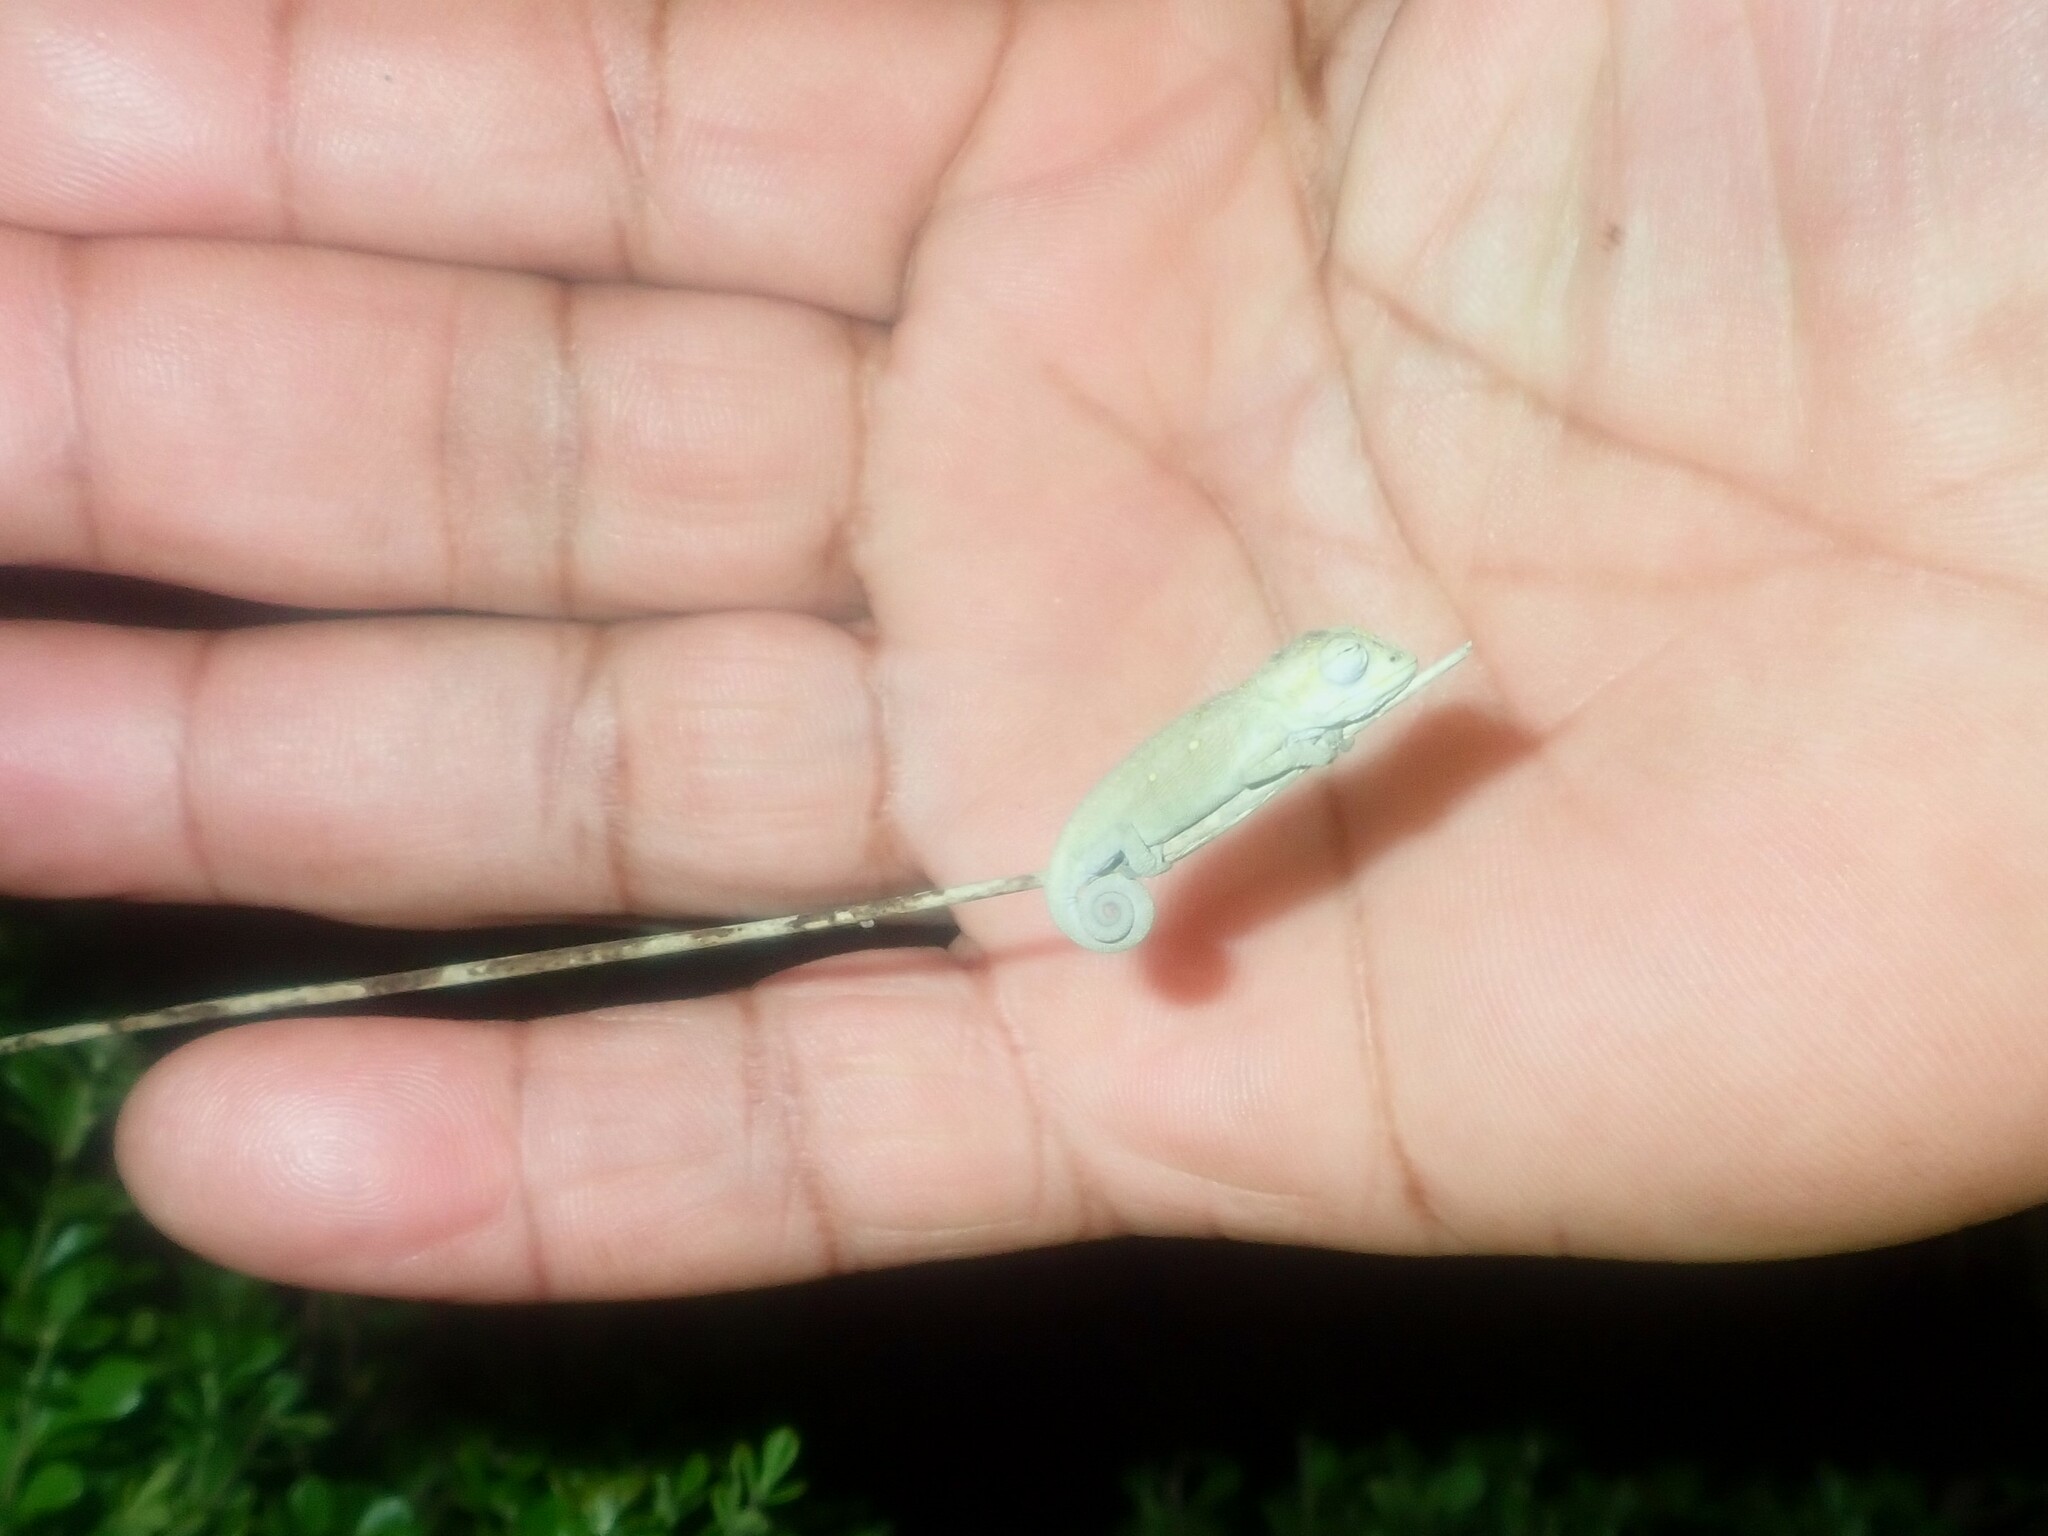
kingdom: Animalia
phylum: Chordata
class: Squamata
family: Chamaeleonidae
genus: Bradypodion
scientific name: Bradypodion pumilum
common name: Cape dwarf chameleon
